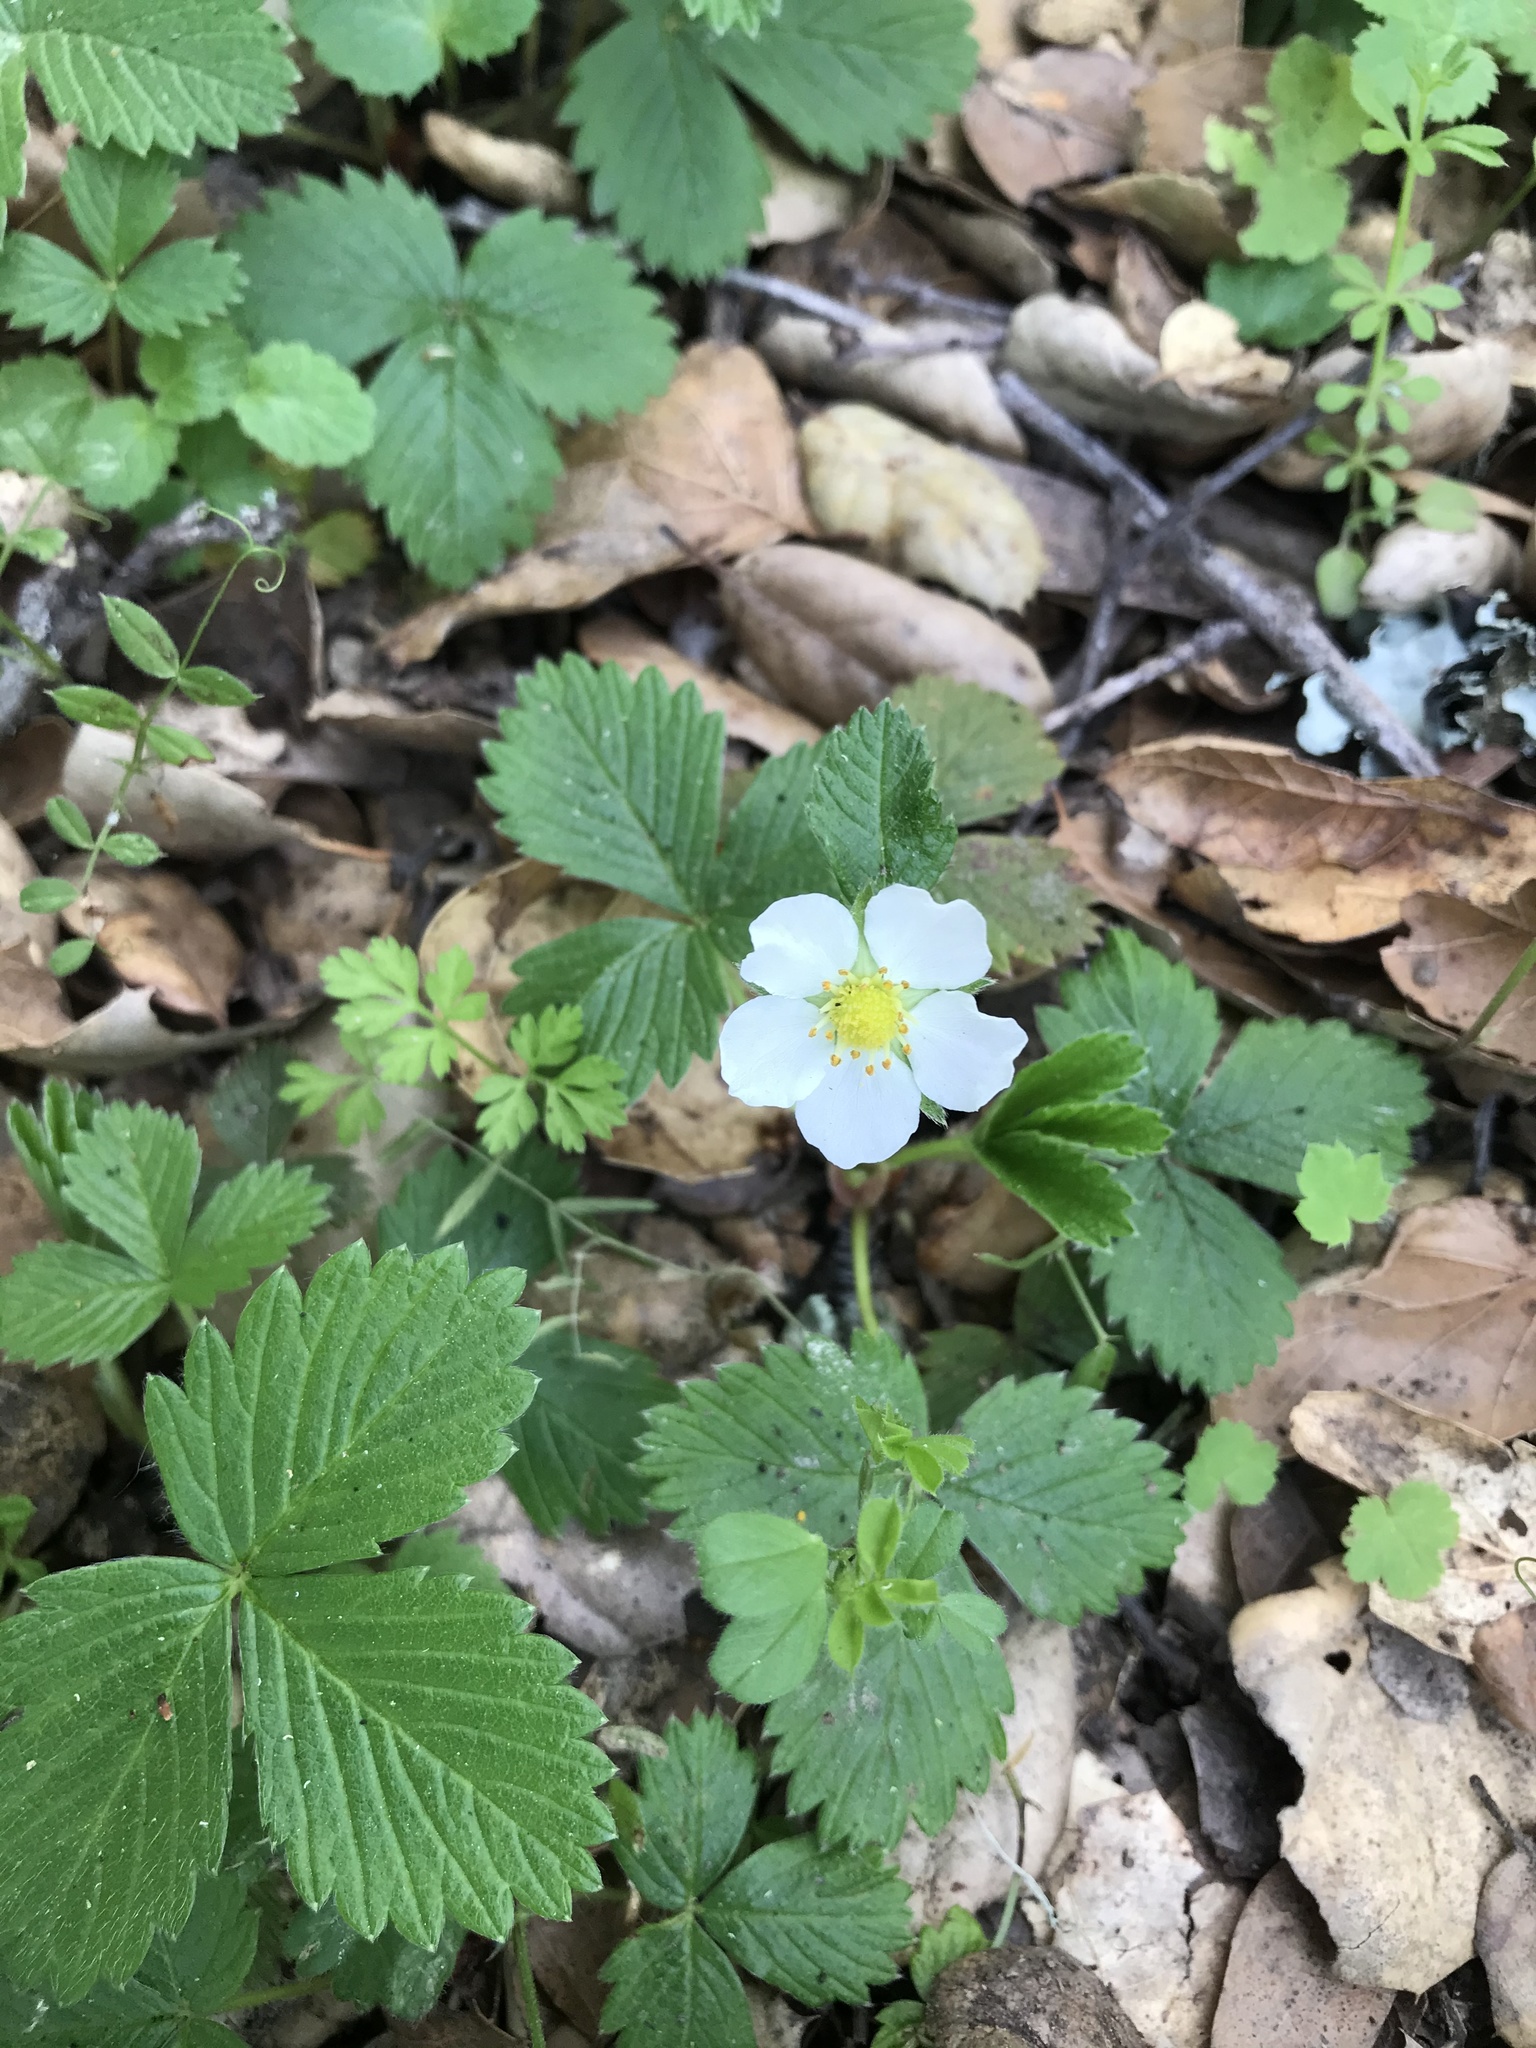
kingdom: Plantae
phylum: Tracheophyta
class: Magnoliopsida
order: Rosales
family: Rosaceae
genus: Fragaria
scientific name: Fragaria vesca
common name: Wild strawberry
